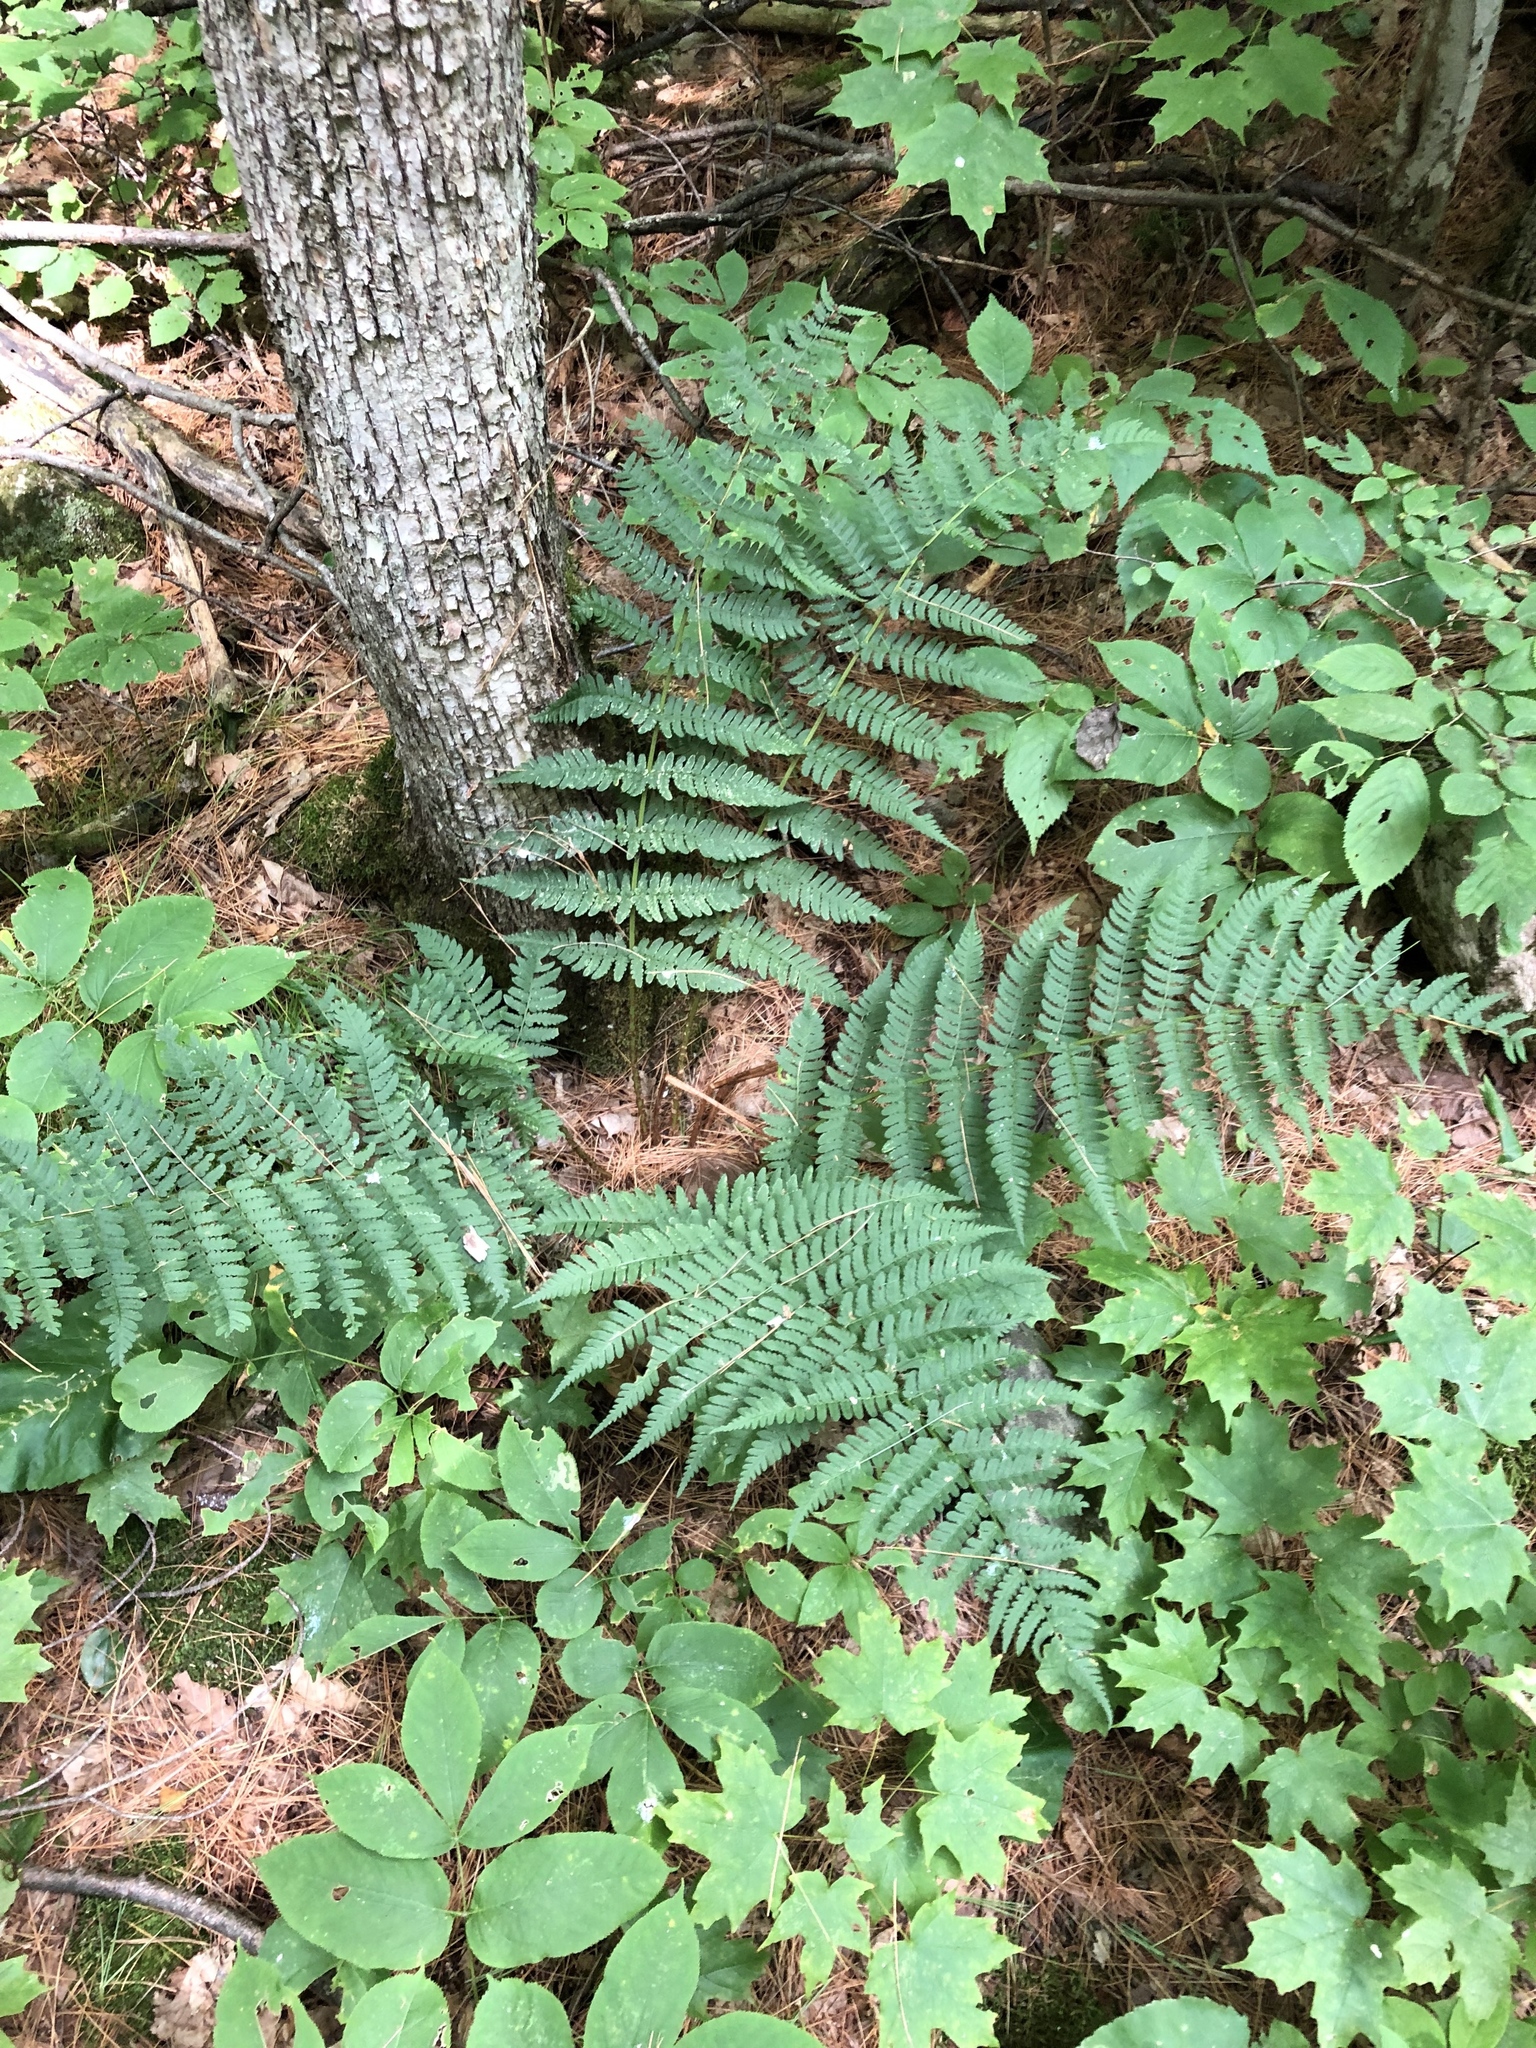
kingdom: Plantae
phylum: Tracheophyta
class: Polypodiopsida
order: Polypodiales
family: Dryopteridaceae
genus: Dryopteris
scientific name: Dryopteris marginalis
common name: Marginal wood fern
